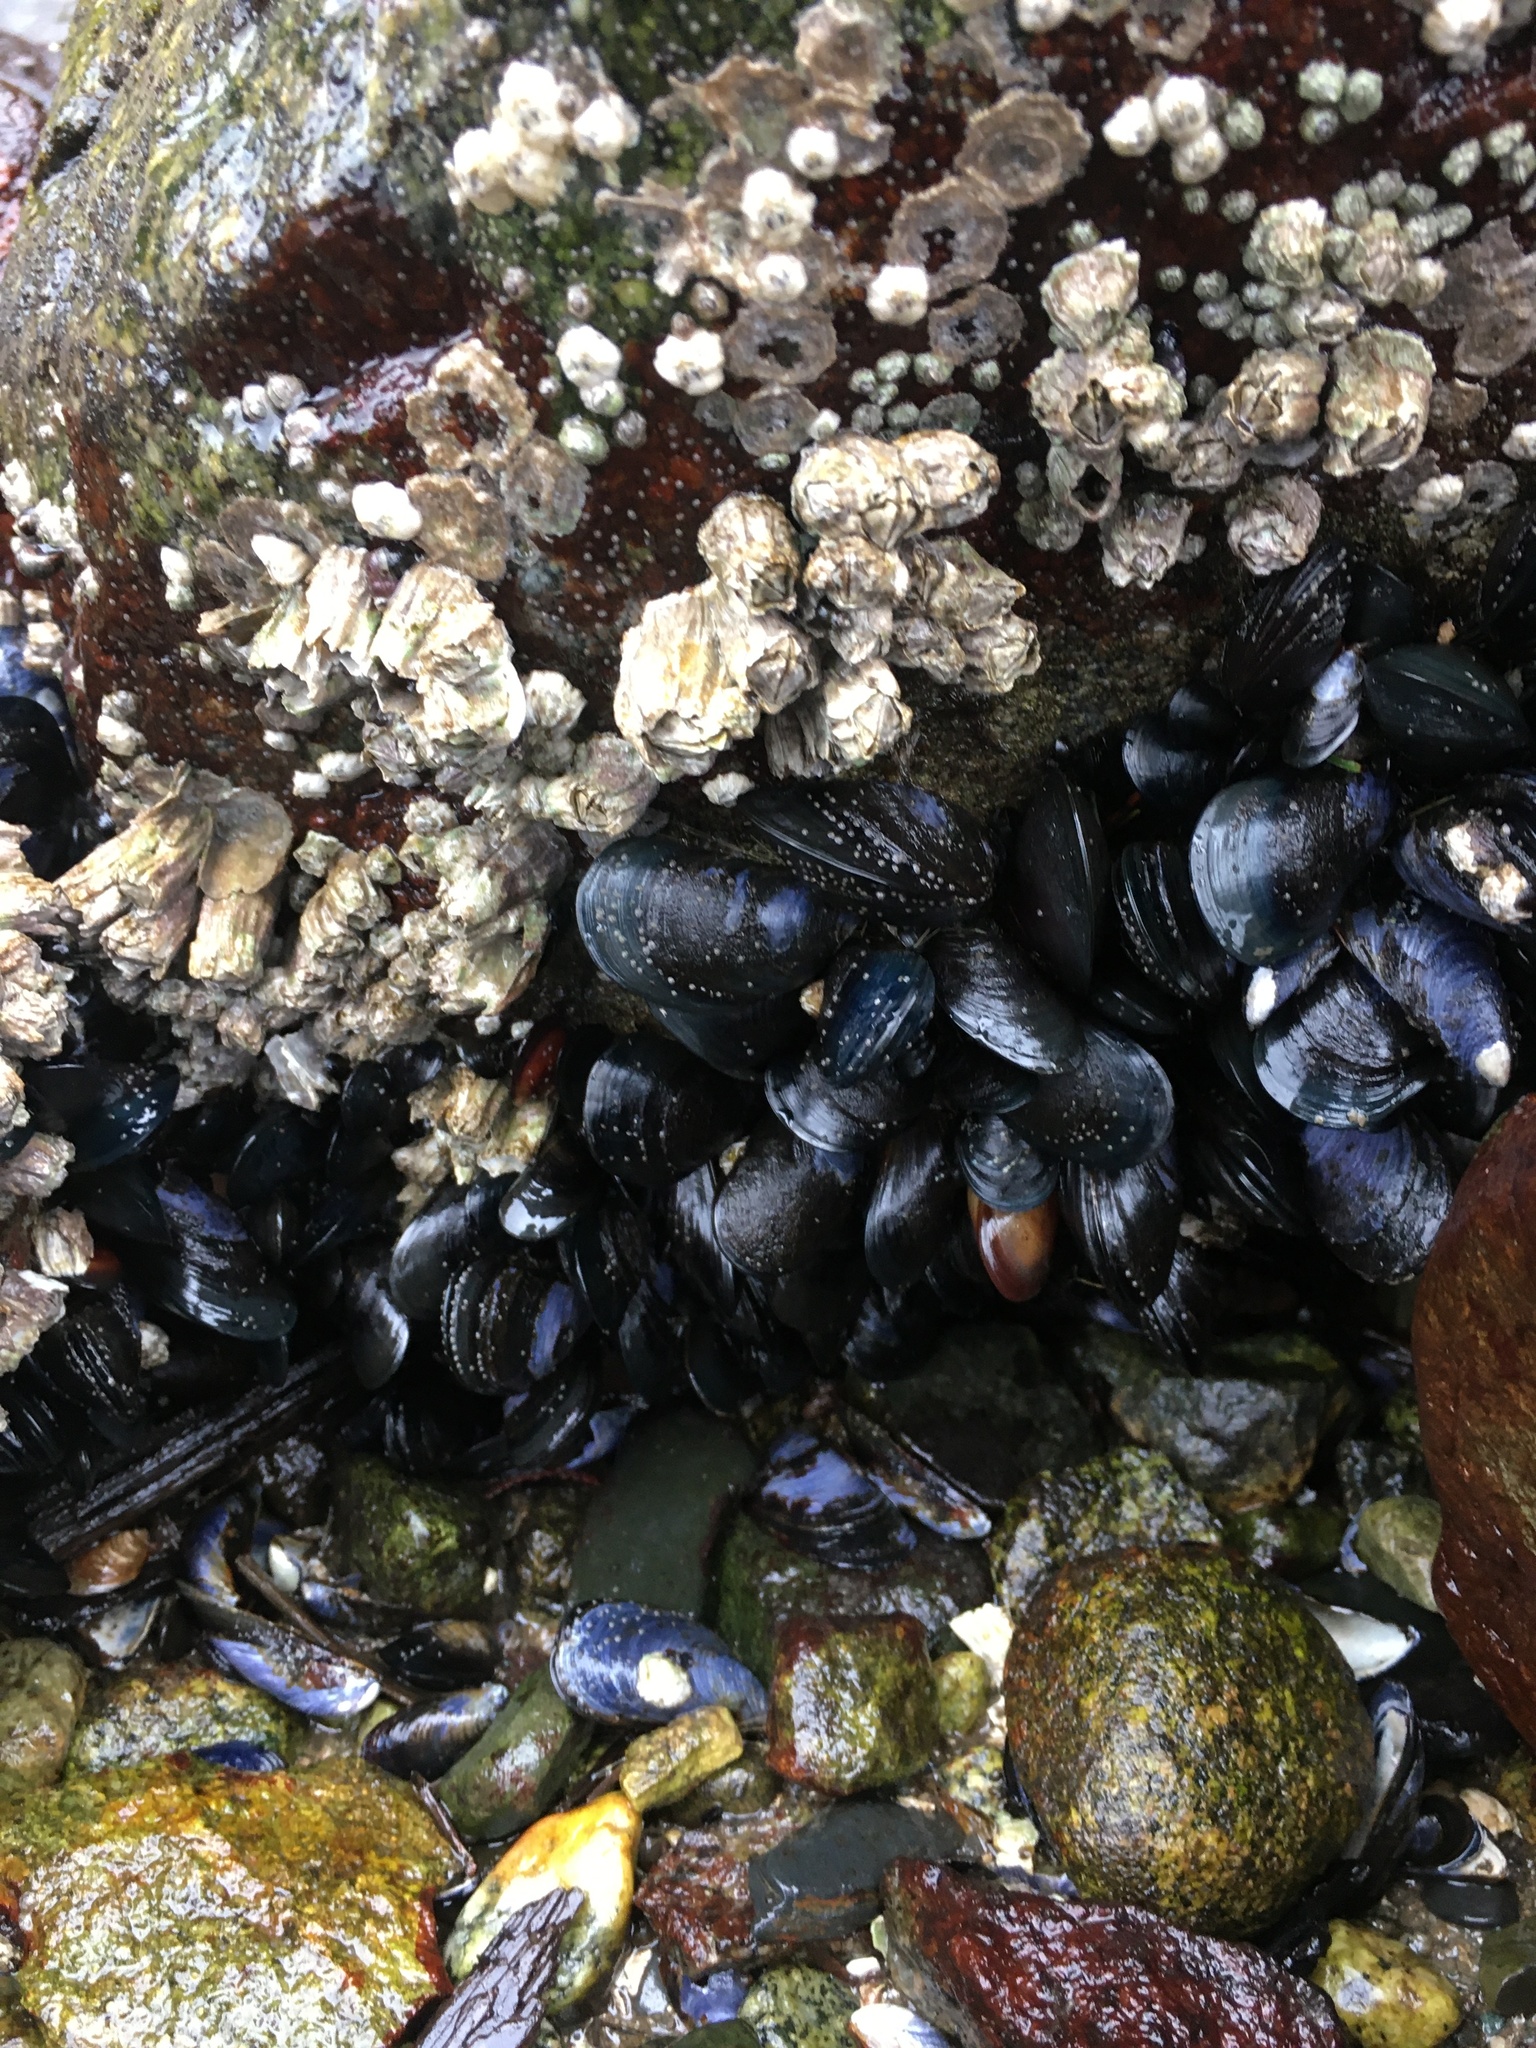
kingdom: Animalia
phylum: Arthropoda
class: Maxillopoda
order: Sessilia
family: Balanidae
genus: Balanus
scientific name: Balanus glandula
